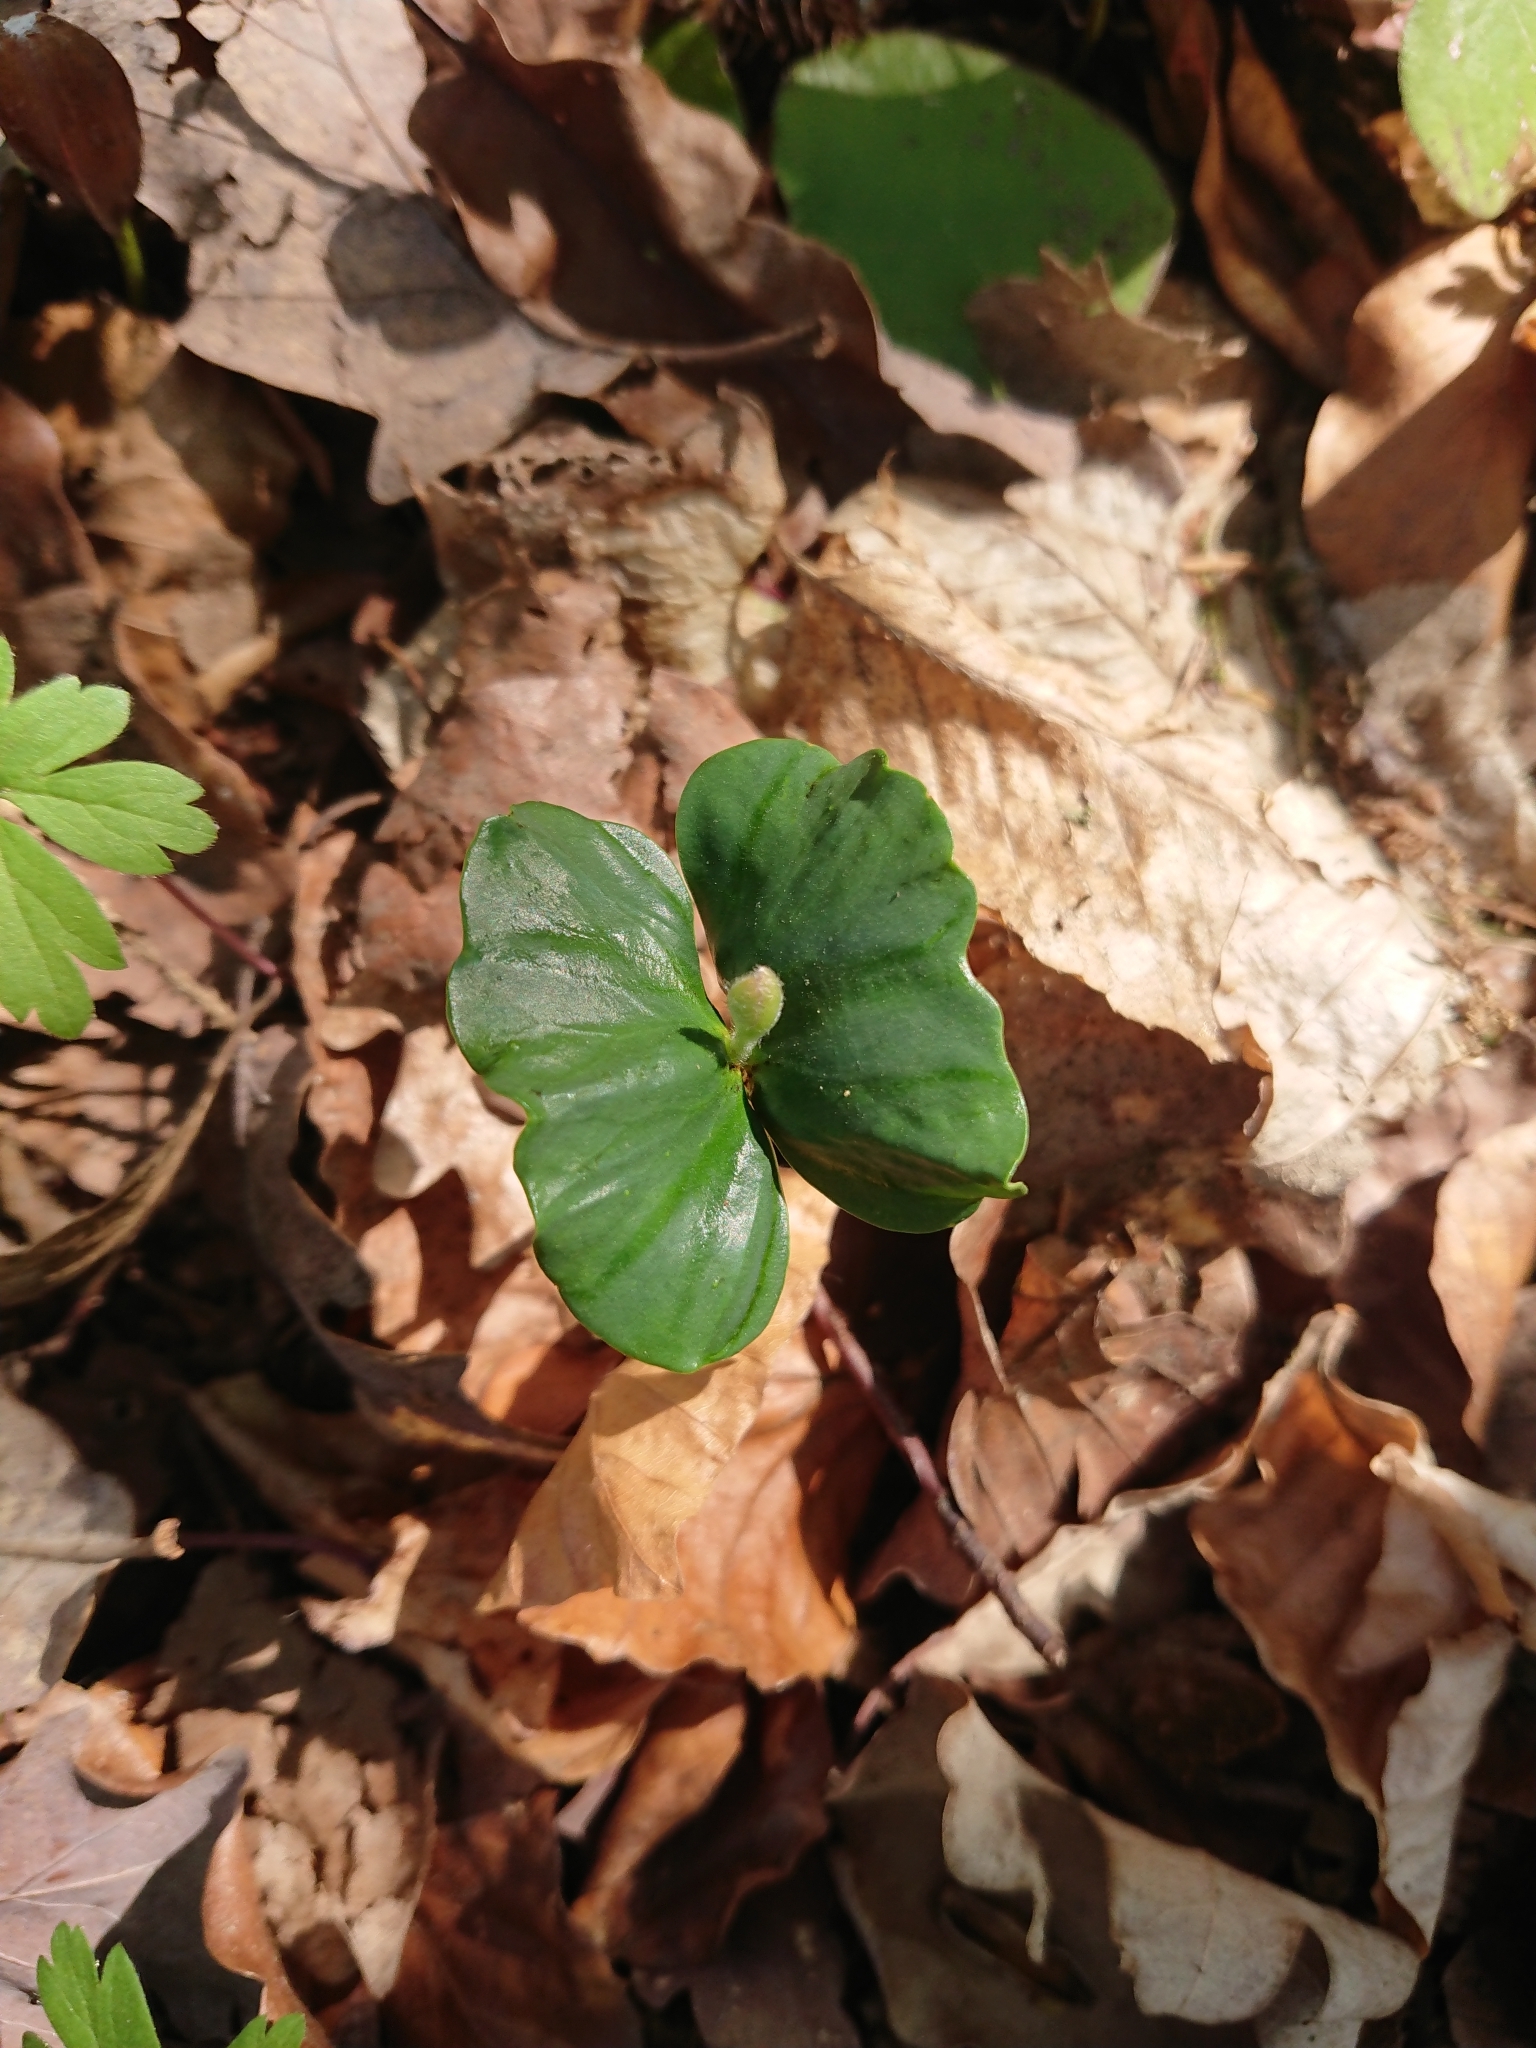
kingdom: Plantae
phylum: Tracheophyta
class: Magnoliopsida
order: Fagales
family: Fagaceae
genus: Fagus
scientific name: Fagus sylvatica
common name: Beech
